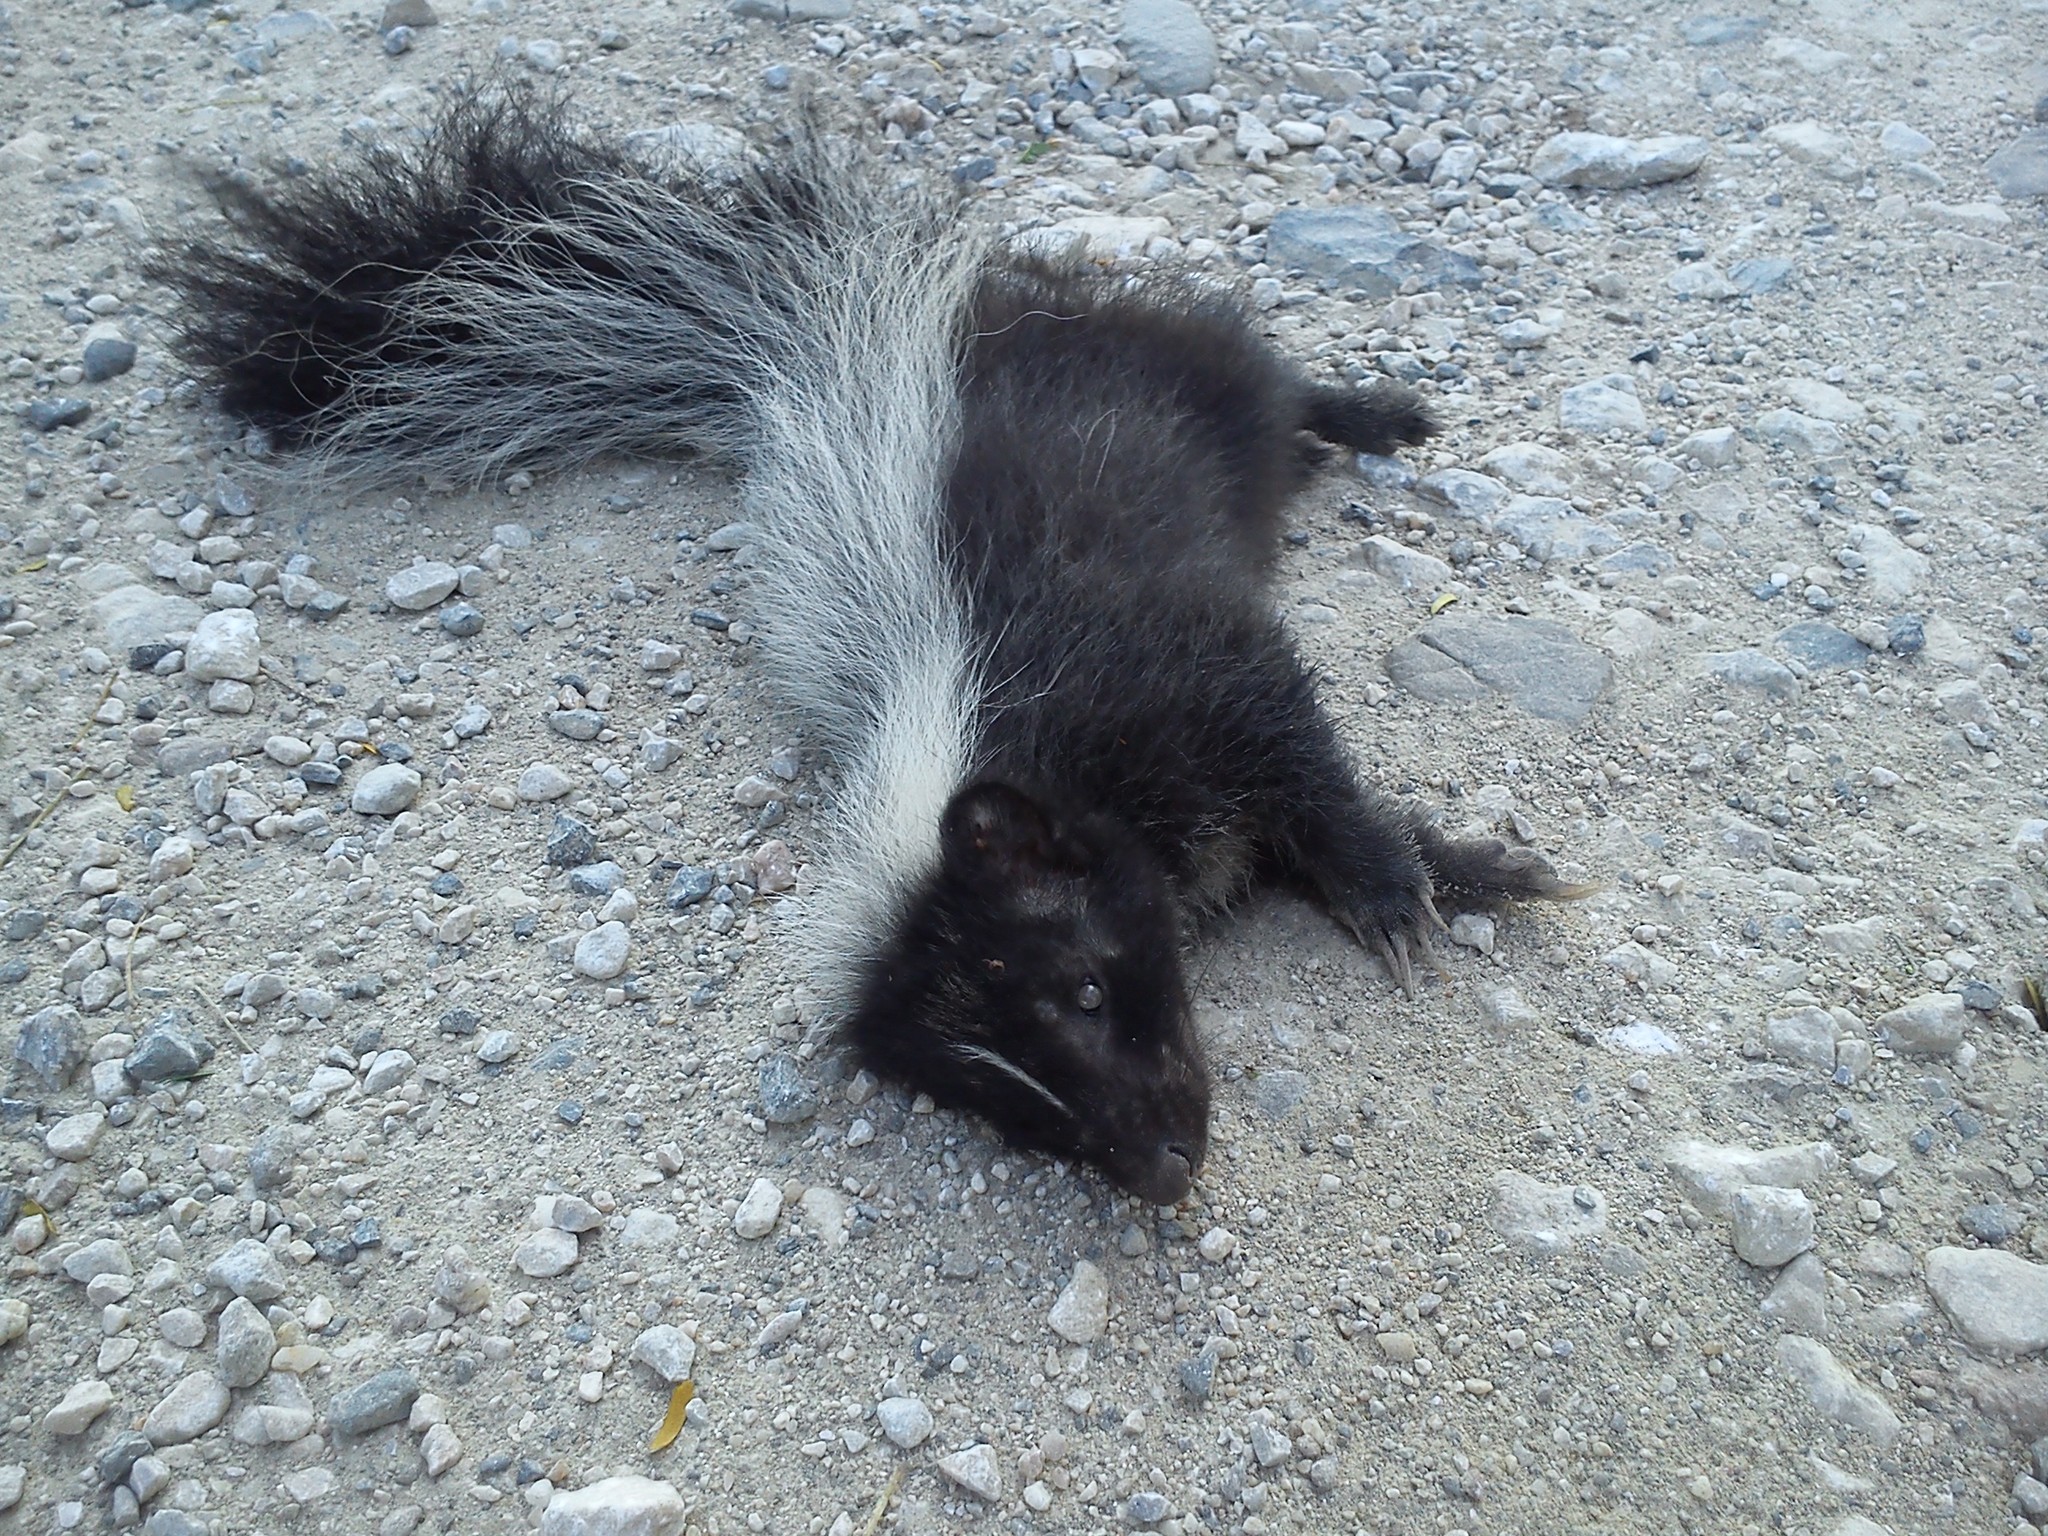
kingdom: Animalia
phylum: Chordata
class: Mammalia
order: Carnivora
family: Mephitidae
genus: Mephitis
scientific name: Mephitis macroura
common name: Hooded skunk
